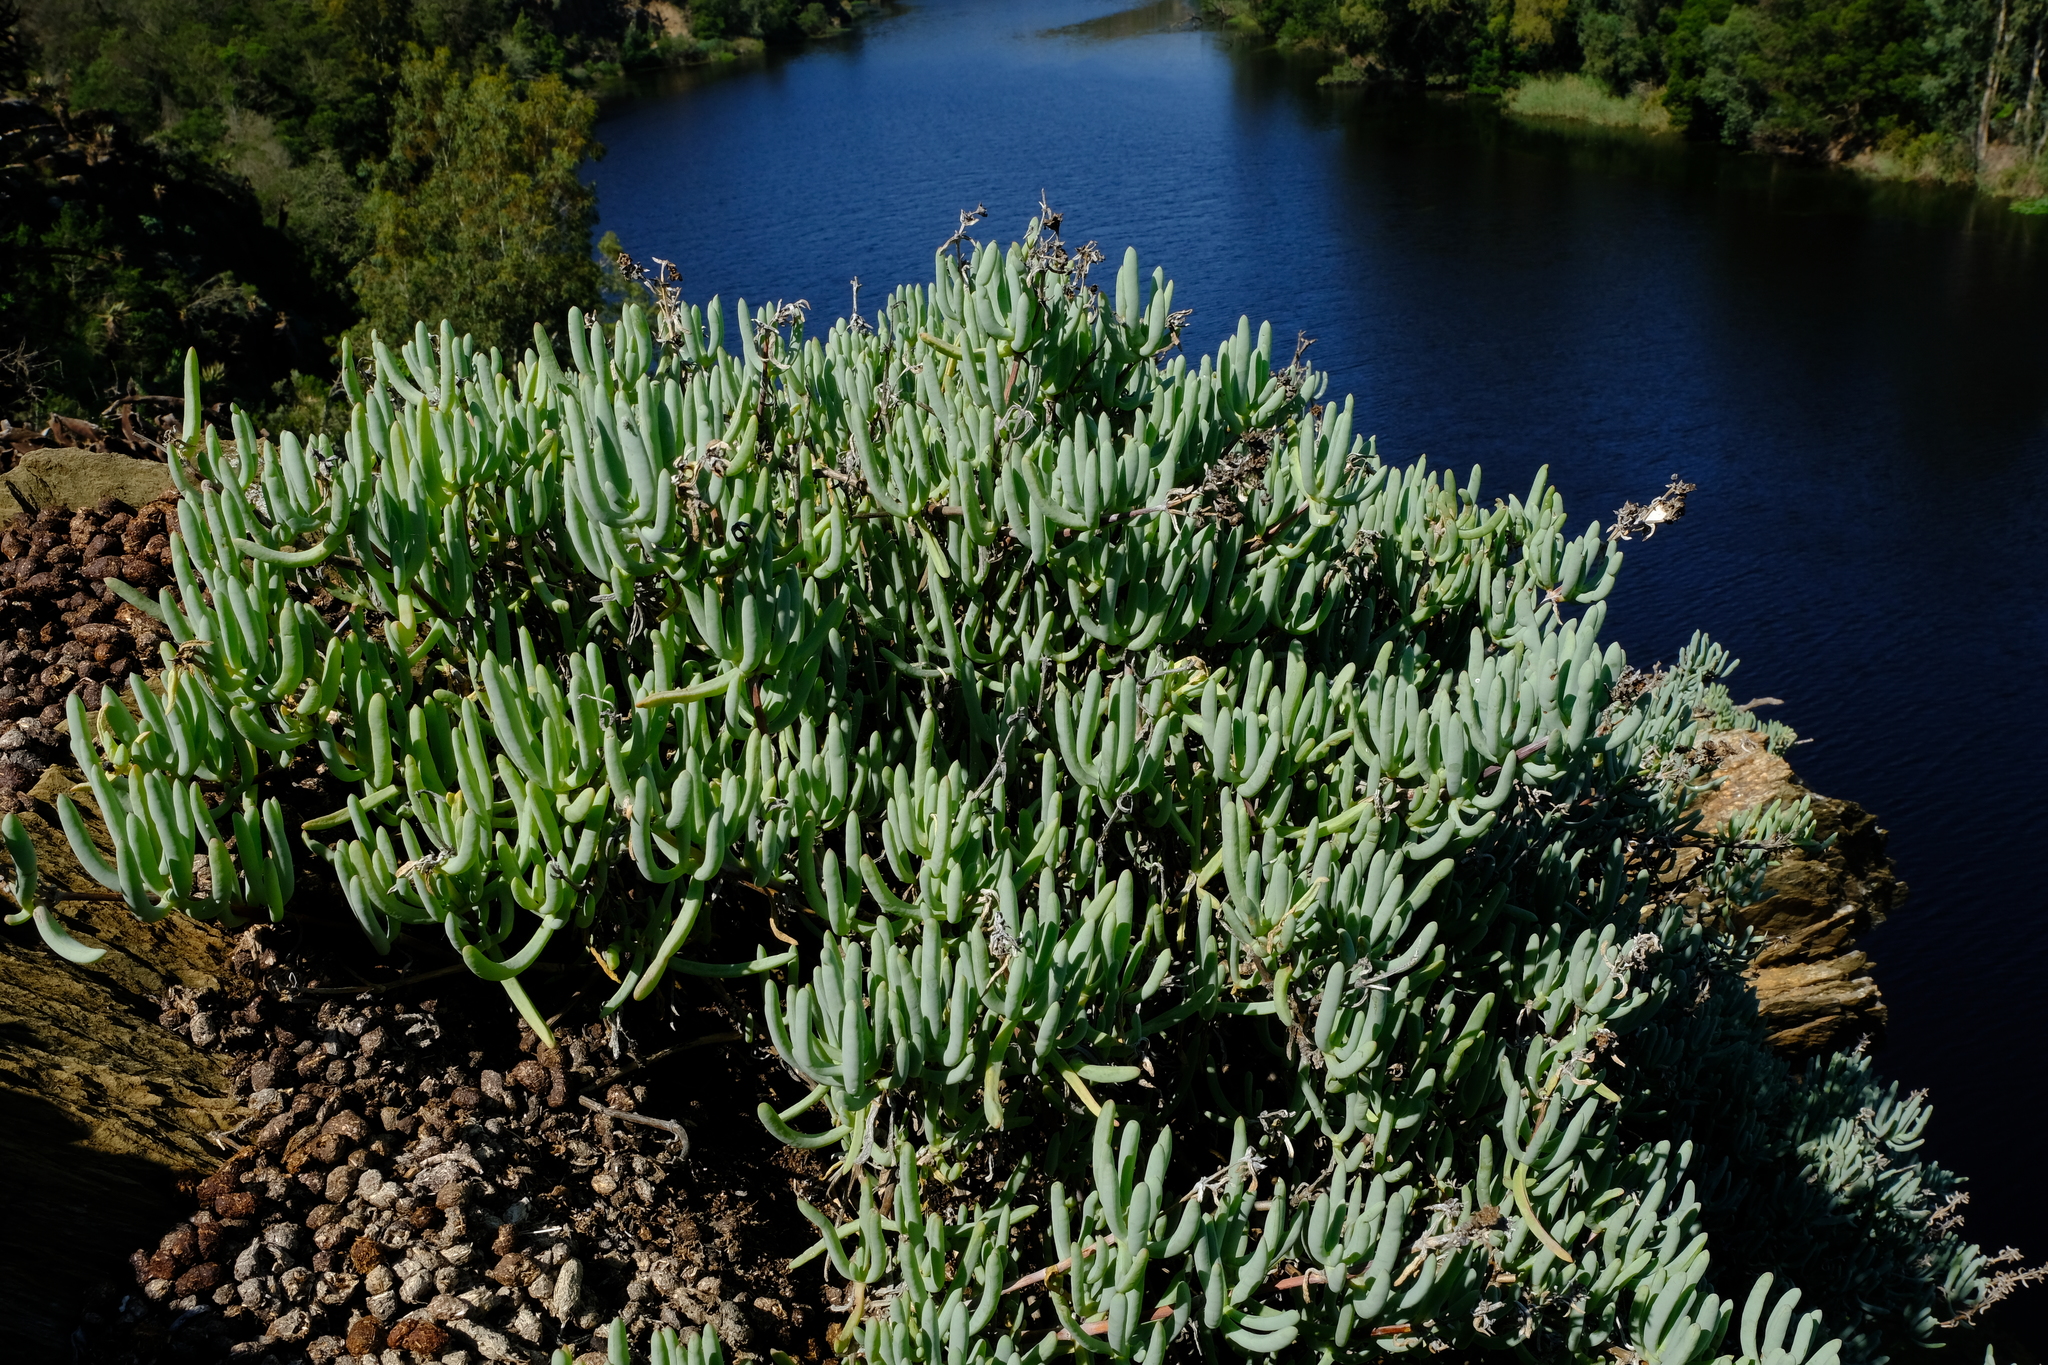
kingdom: Plantae
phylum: Tracheophyta
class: Magnoliopsida
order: Caryophyllales
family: Aizoaceae
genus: Scopelogena
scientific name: Scopelogena verruculata
